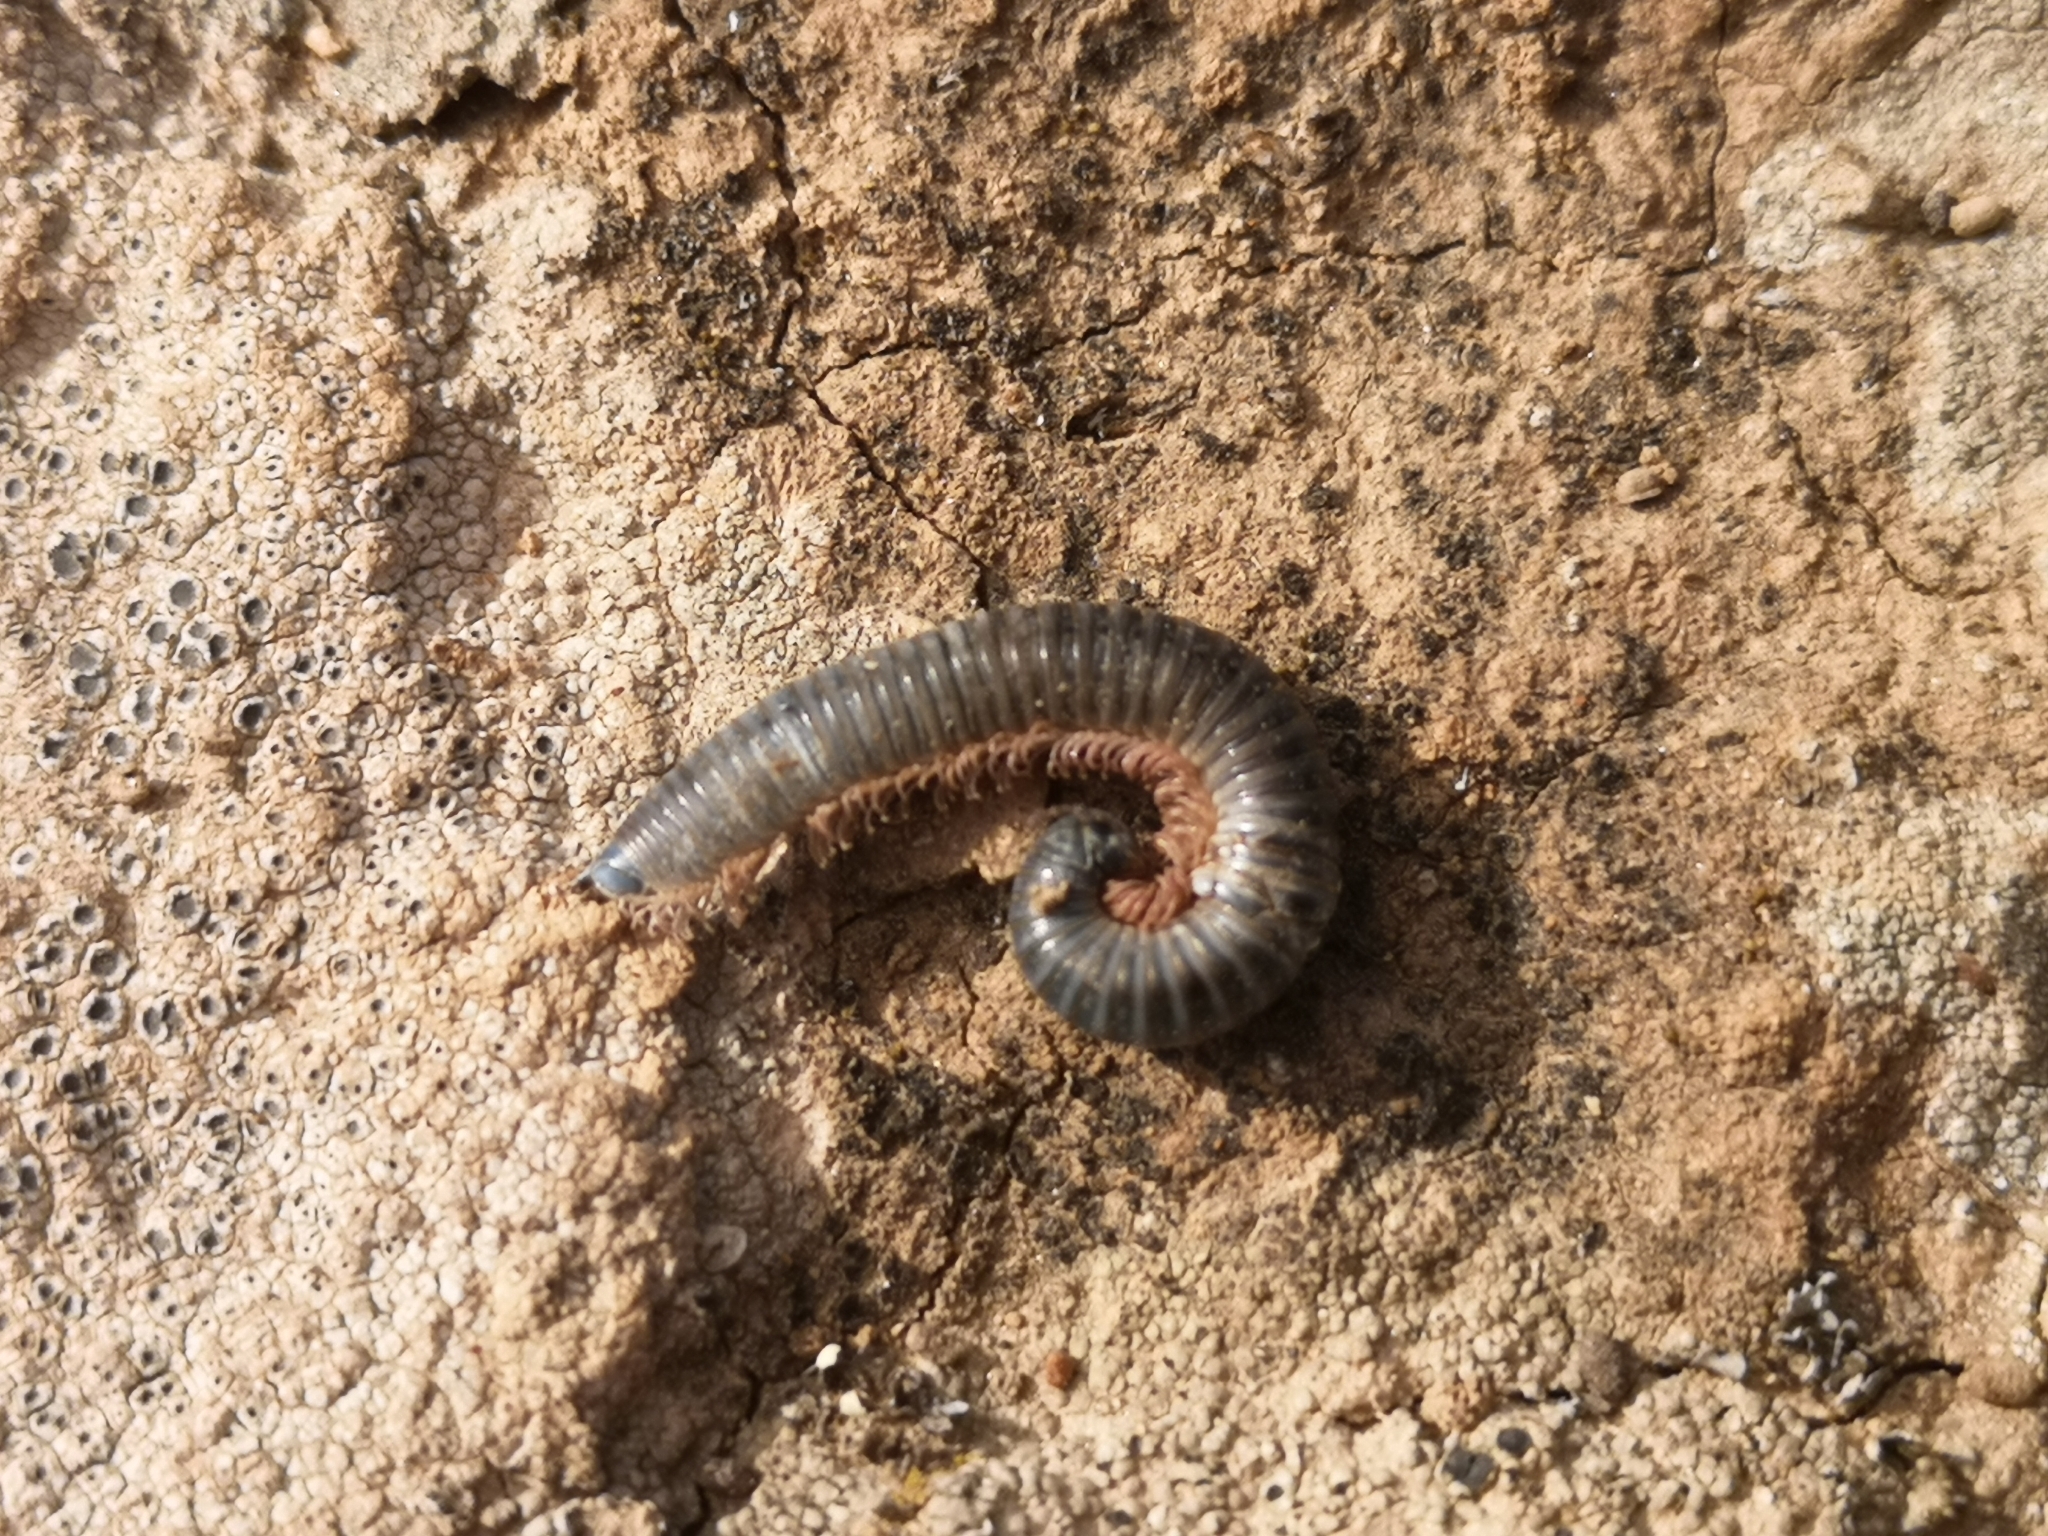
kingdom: Animalia
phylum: Arthropoda
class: Diplopoda
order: Julida
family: Julidae
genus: Ommatoiulus
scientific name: Ommatoiulus moreleti
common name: Portuguese millipede
